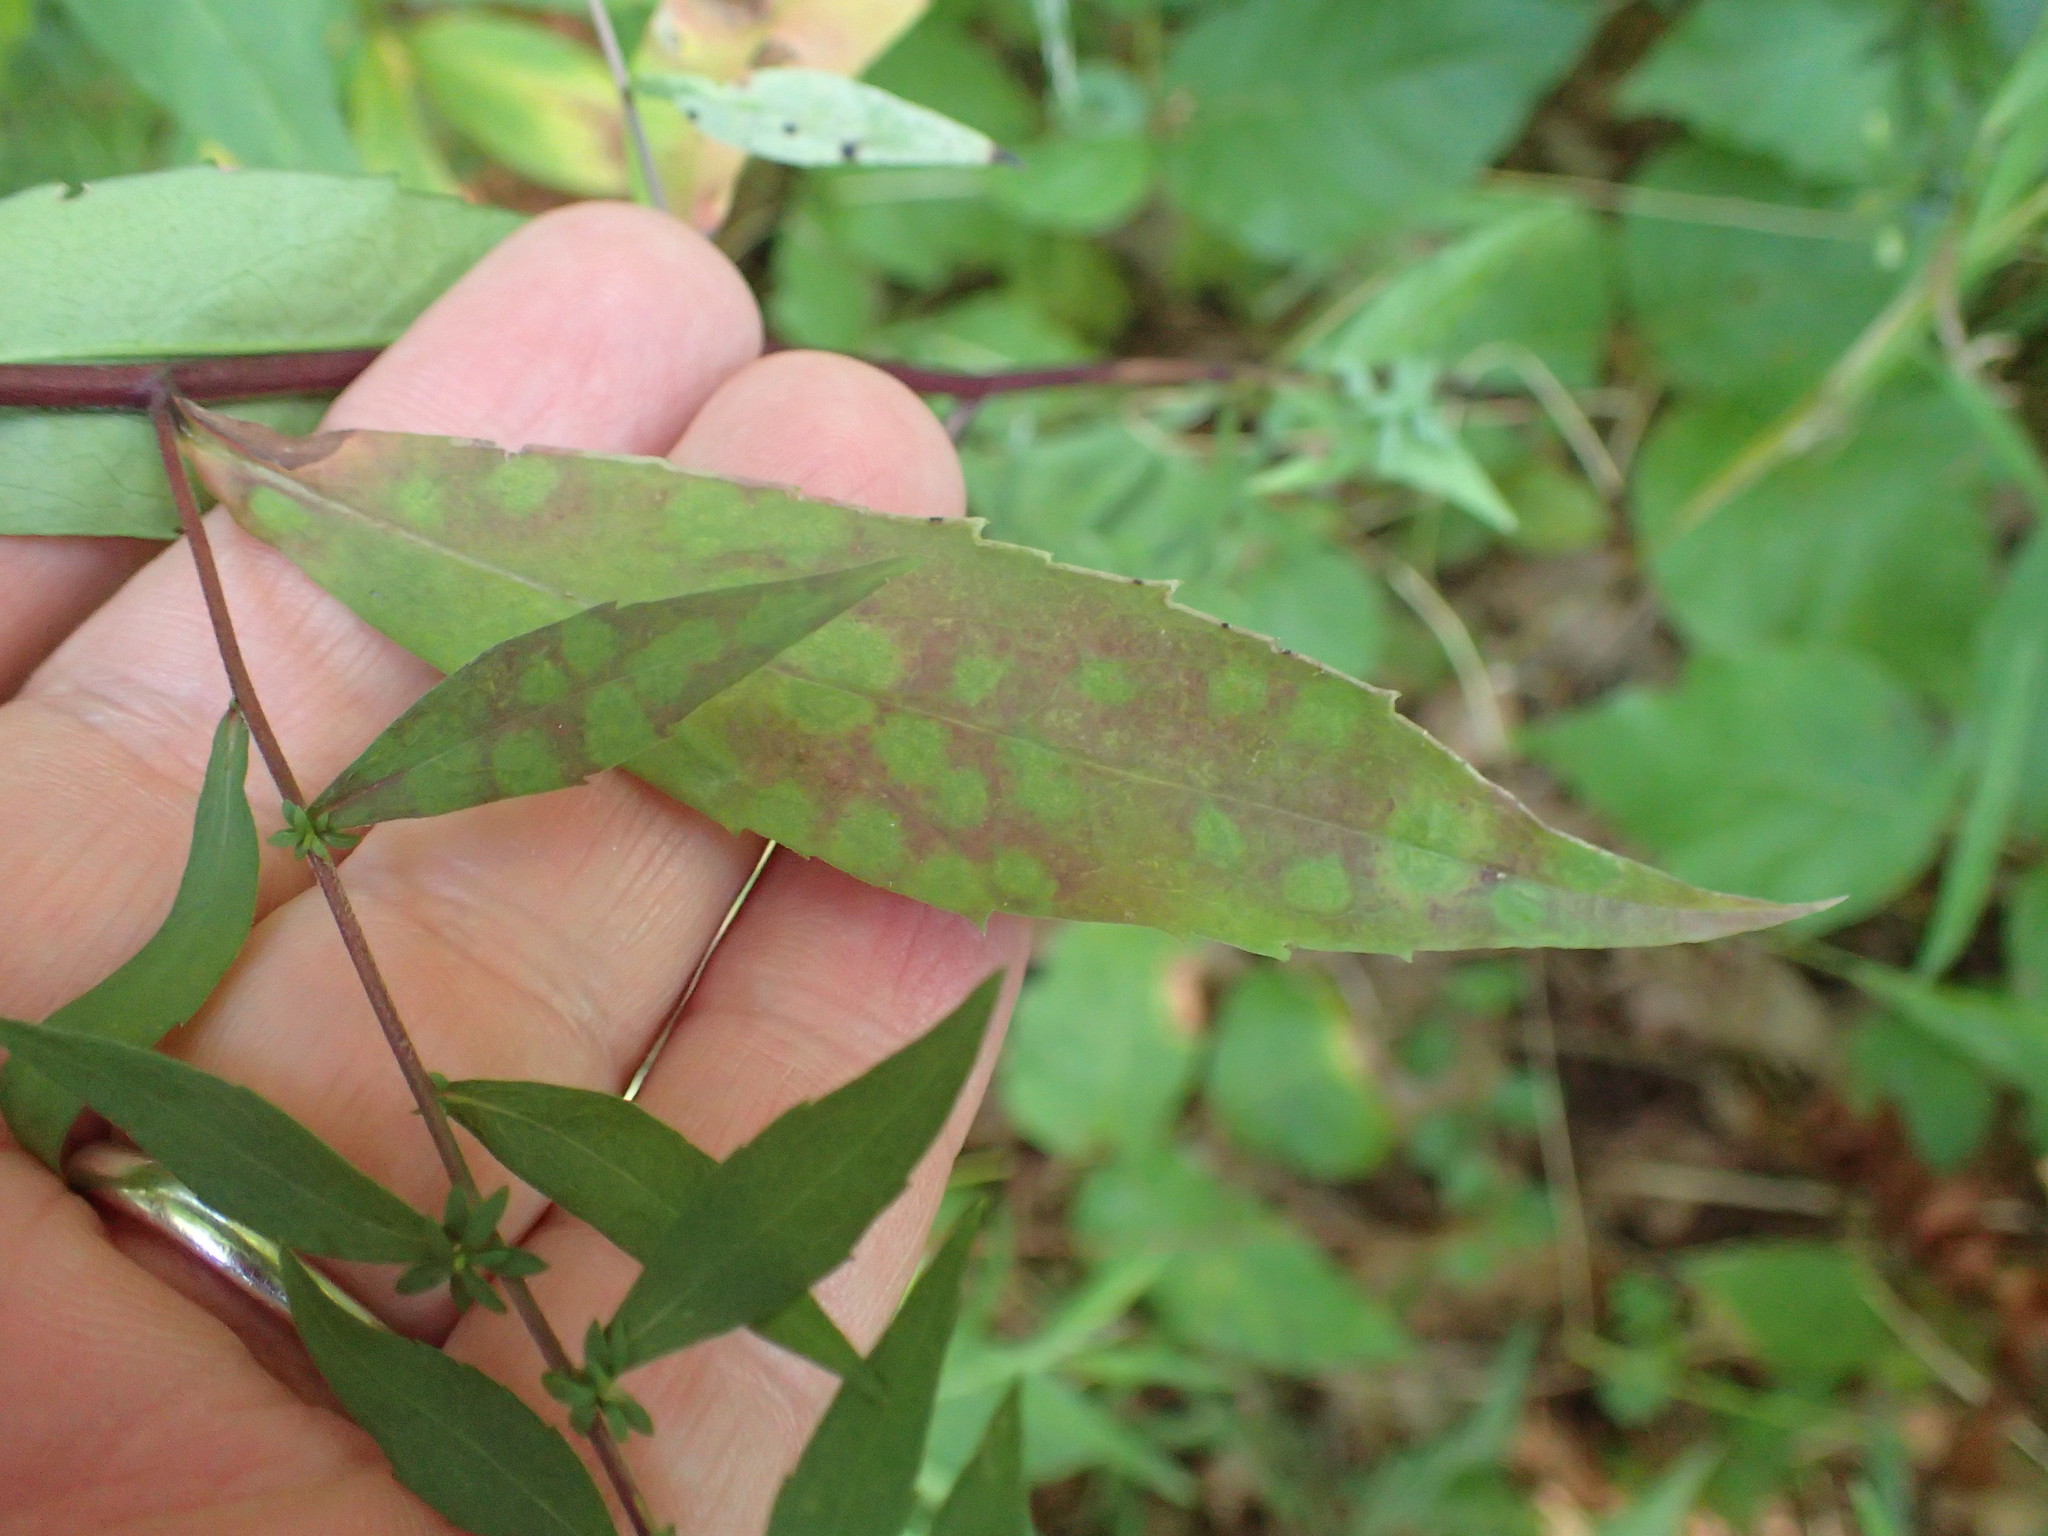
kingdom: Plantae
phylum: Tracheophyta
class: Magnoliopsida
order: Asterales
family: Asteraceae
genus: Symphyotrichum
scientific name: Symphyotrichum lateriflorum
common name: Calico aster
